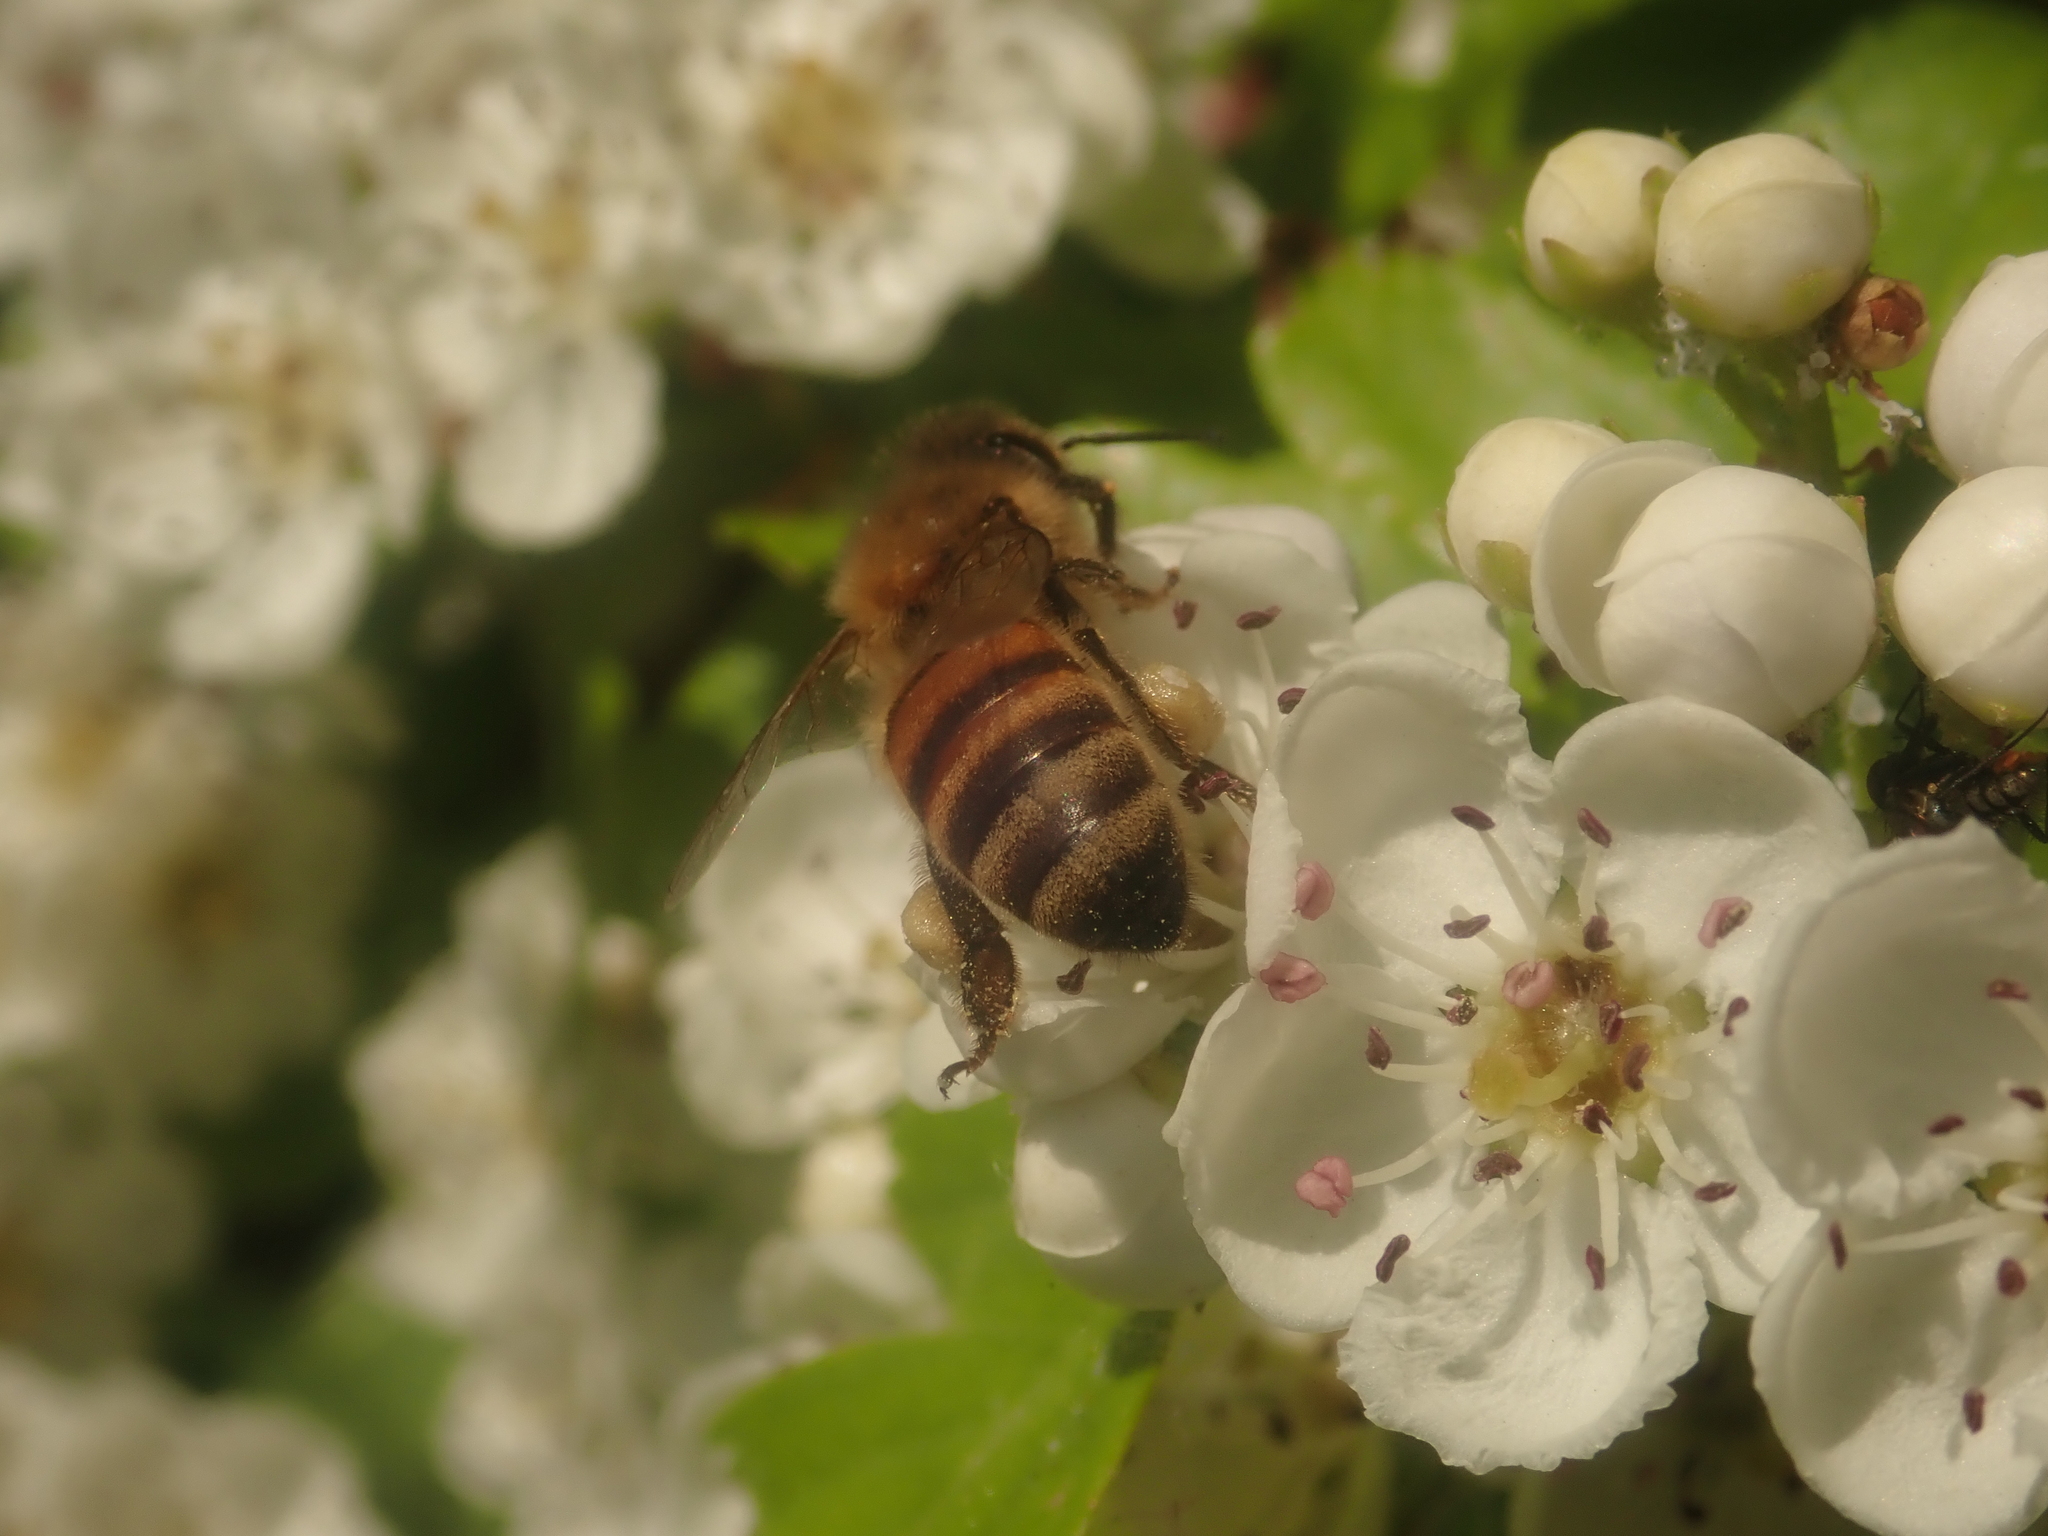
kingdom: Animalia
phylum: Arthropoda
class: Insecta
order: Hymenoptera
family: Apidae
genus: Apis
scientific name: Apis mellifera
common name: Honey bee
